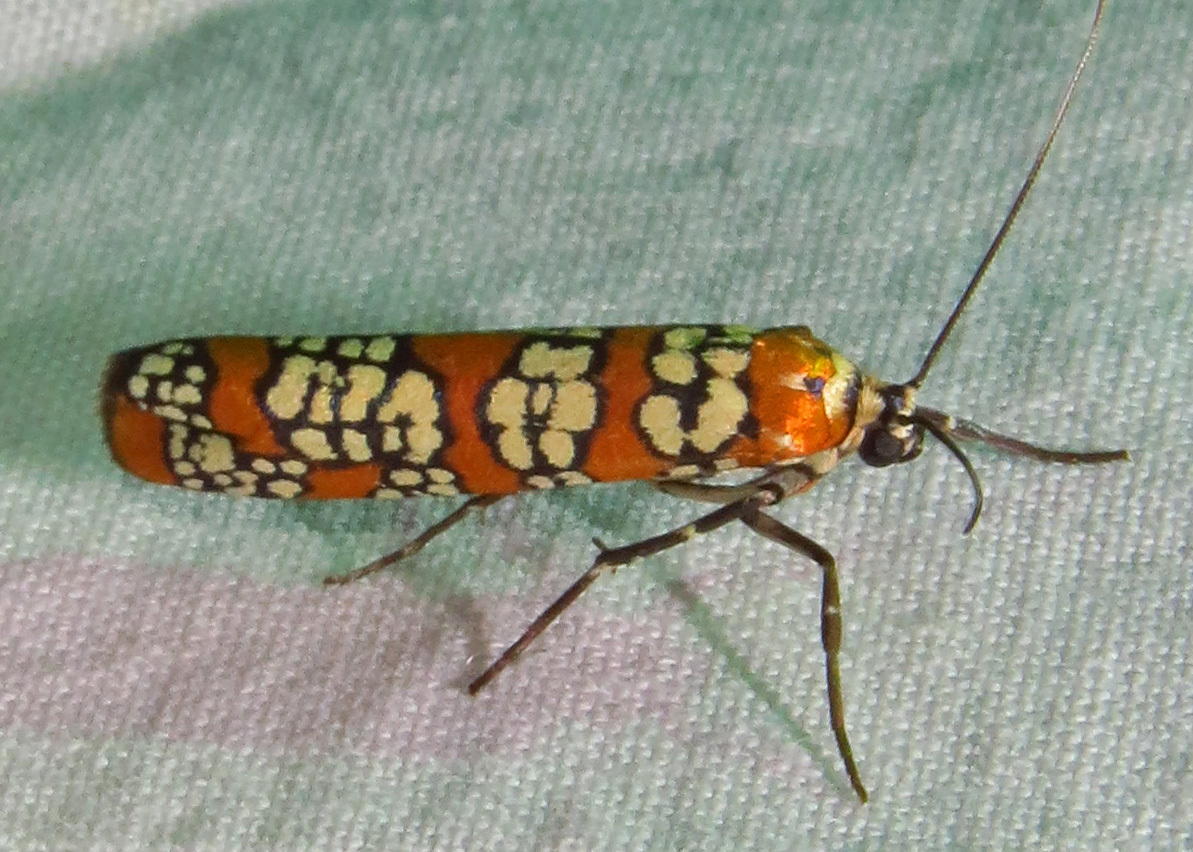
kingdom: Animalia
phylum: Arthropoda
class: Insecta
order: Lepidoptera
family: Attevidae
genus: Atteva
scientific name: Atteva punctella
